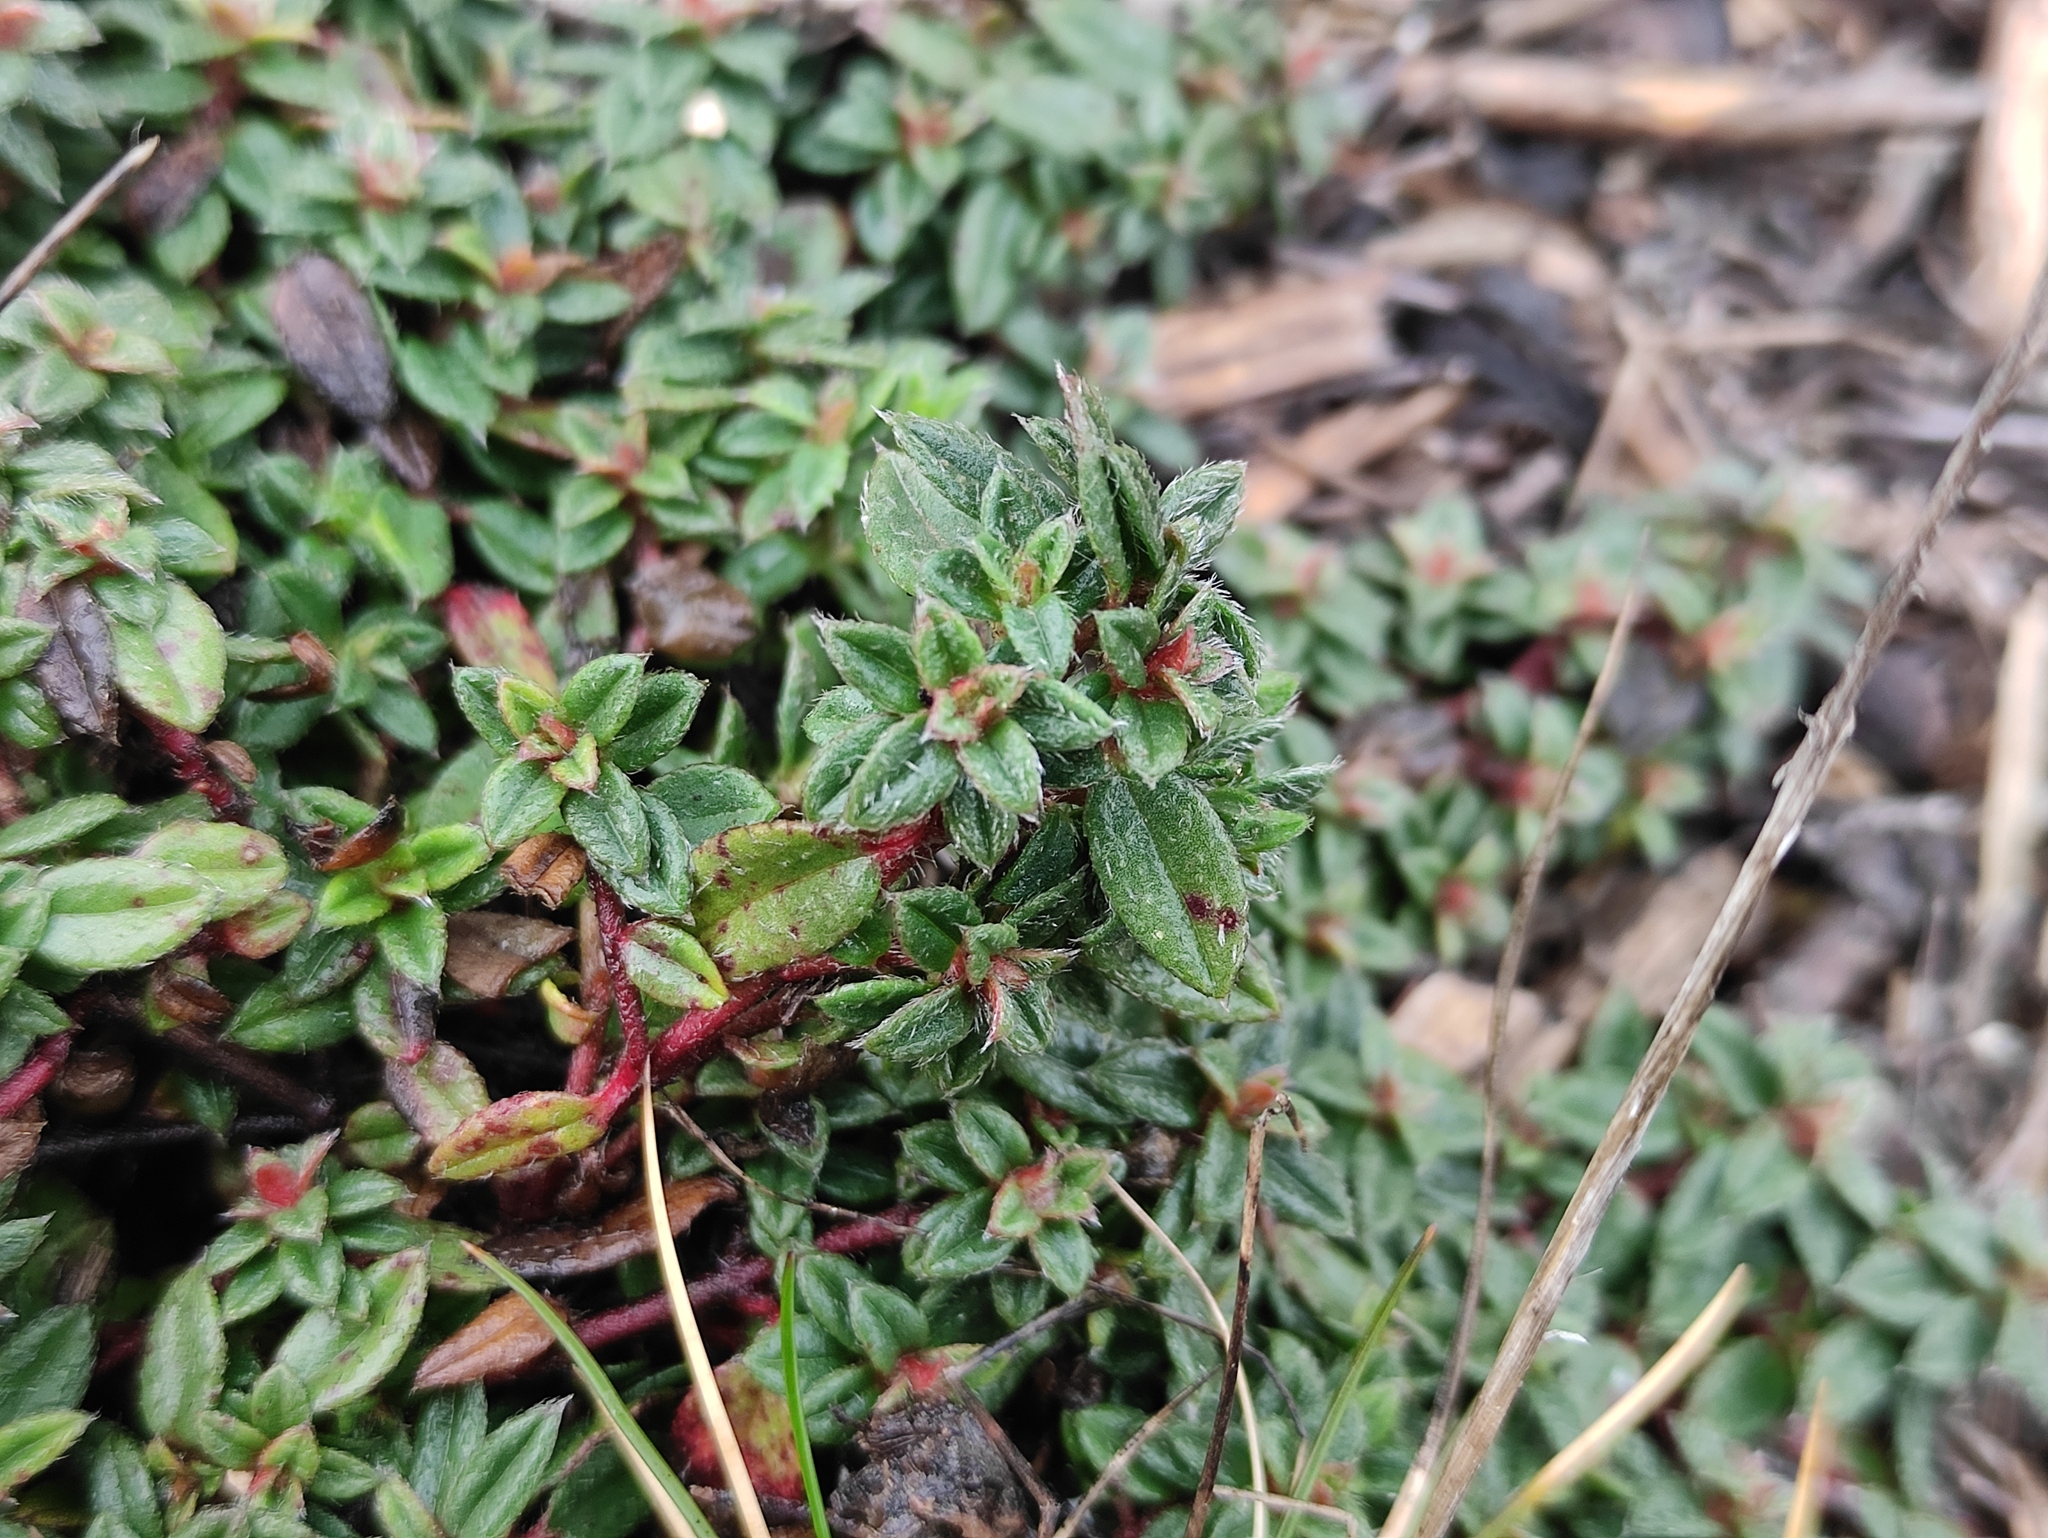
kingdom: Plantae
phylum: Tracheophyta
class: Magnoliopsida
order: Malvales
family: Cistaceae
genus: Helianthemum
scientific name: Helianthemum oelandicum
